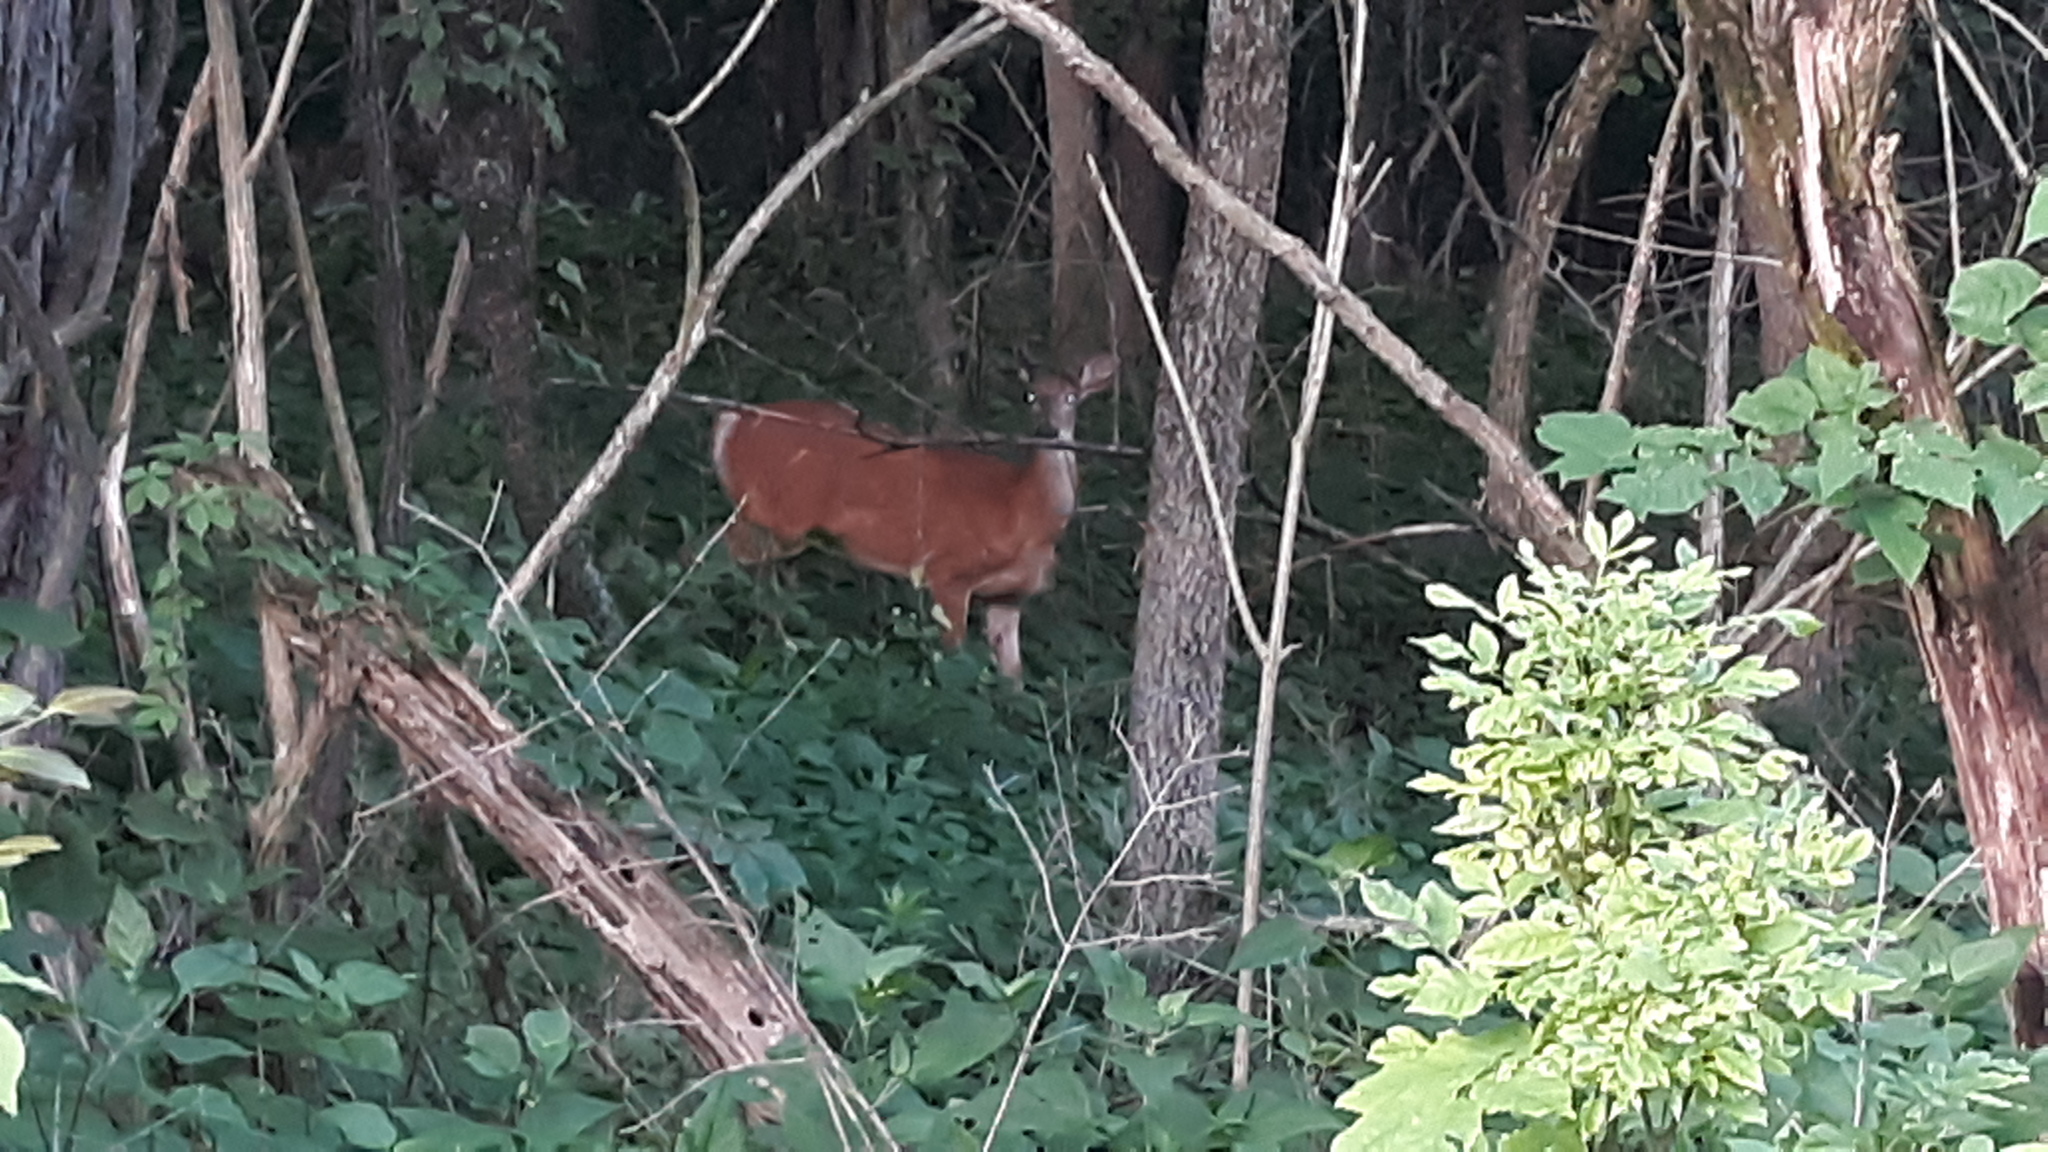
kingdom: Animalia
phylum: Chordata
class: Mammalia
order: Artiodactyla
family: Cervidae
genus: Odocoileus
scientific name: Odocoileus virginianus
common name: White-tailed deer
